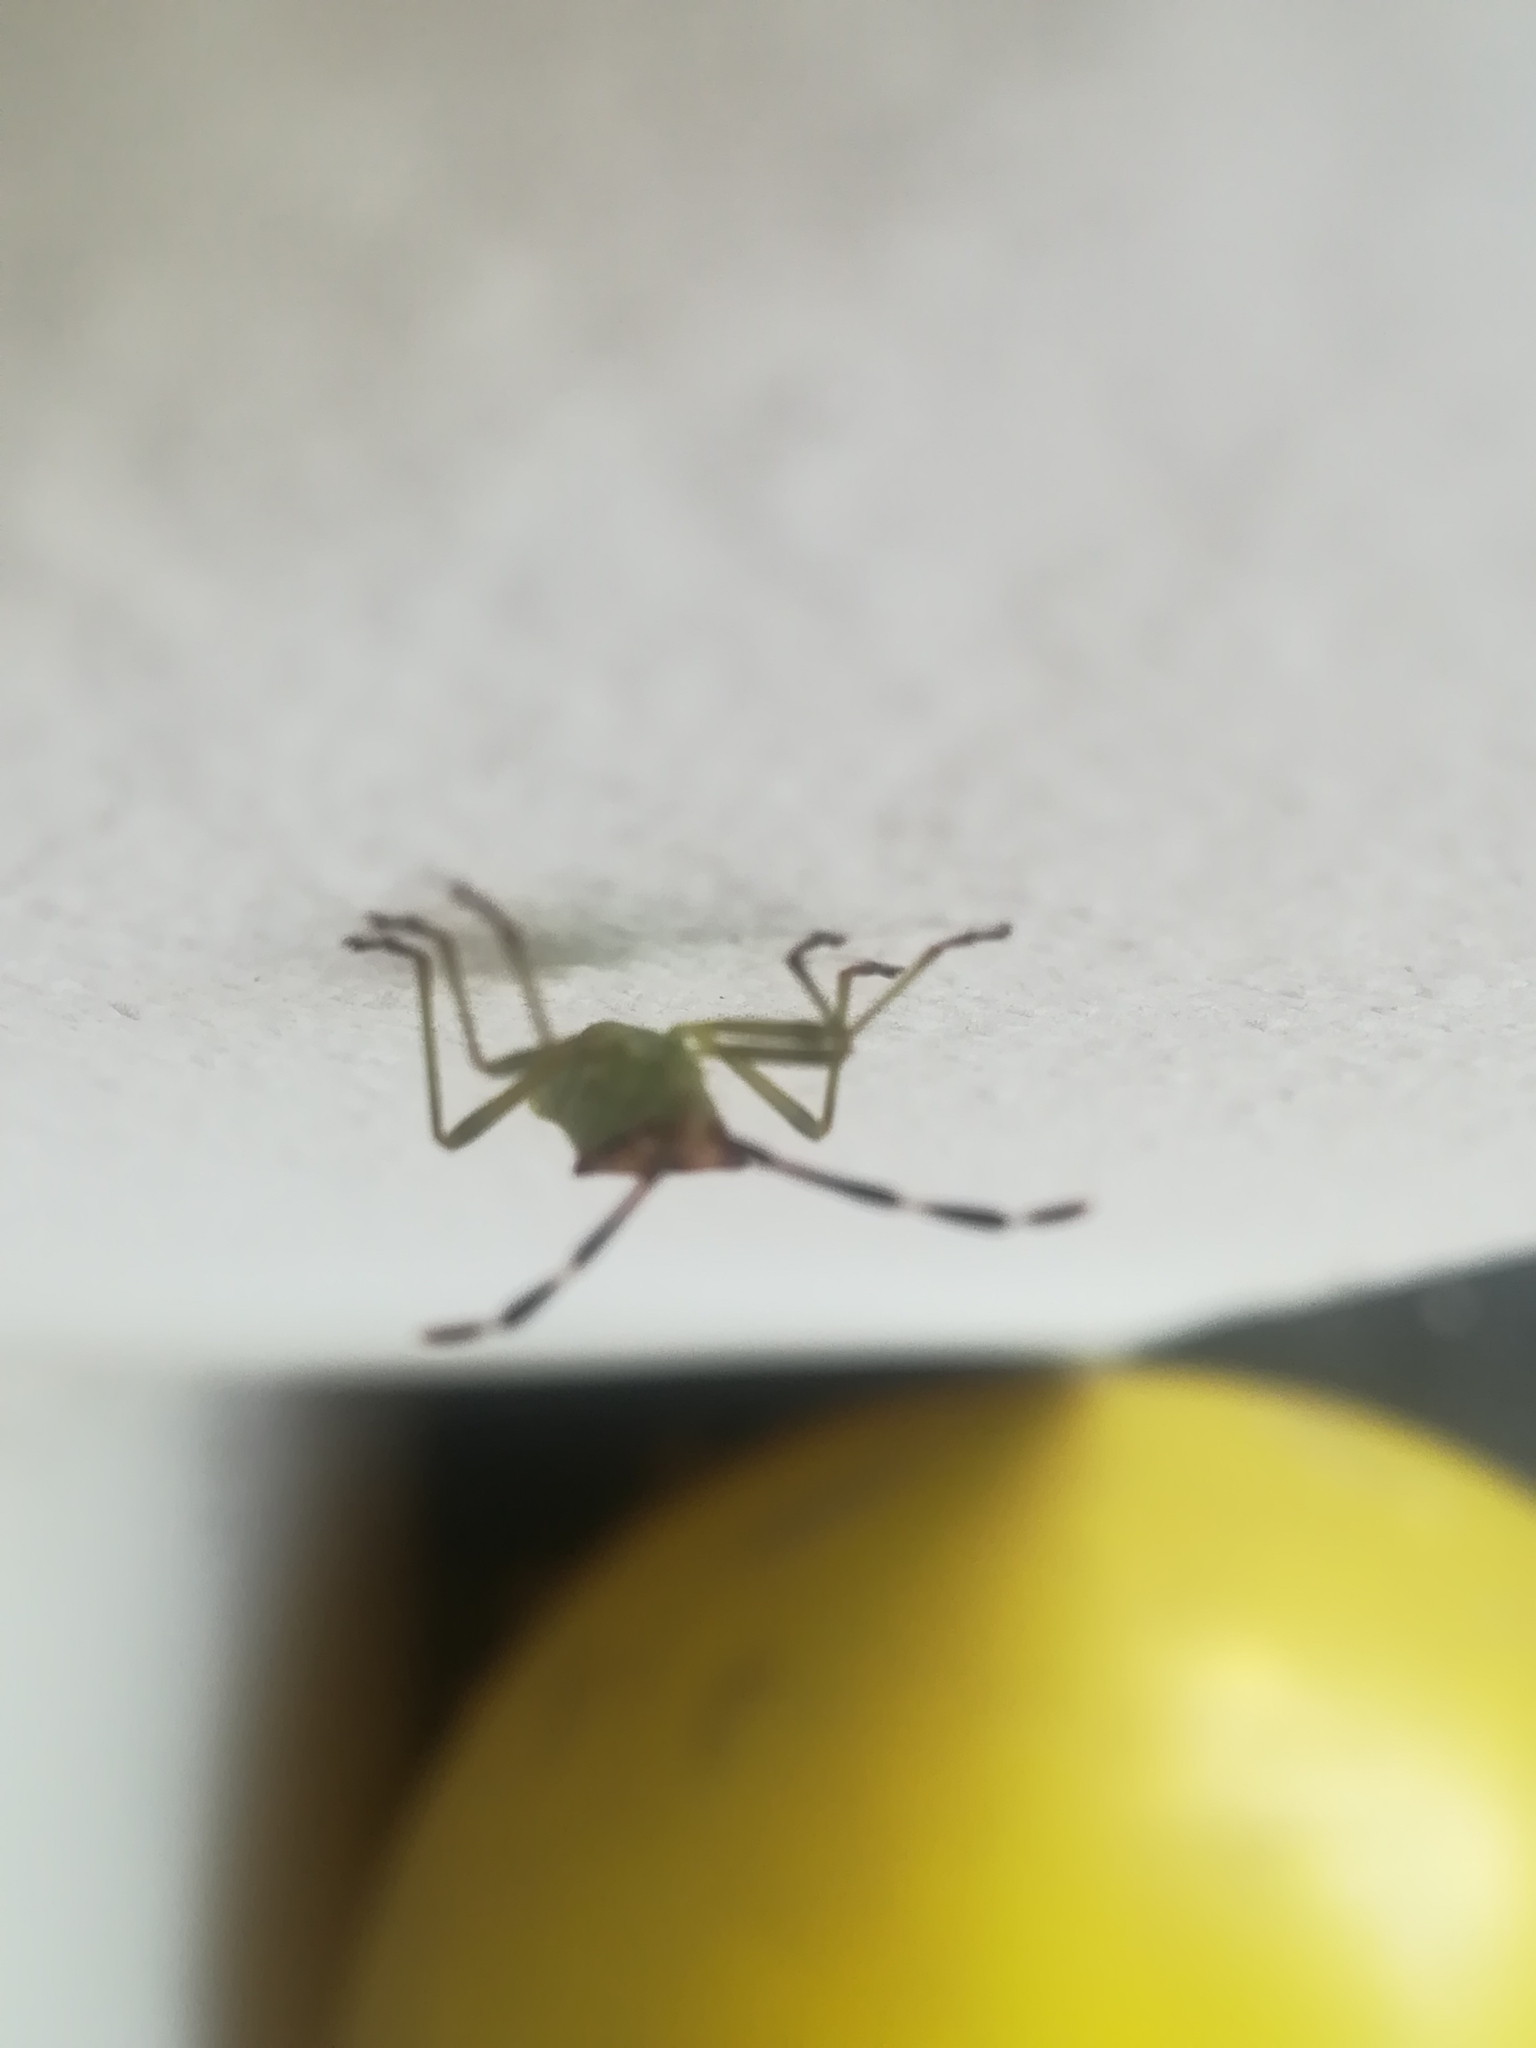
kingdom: Animalia
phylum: Arthropoda
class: Insecta
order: Hemiptera
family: Coreidae
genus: Gonocerus
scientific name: Gonocerus juniperi
